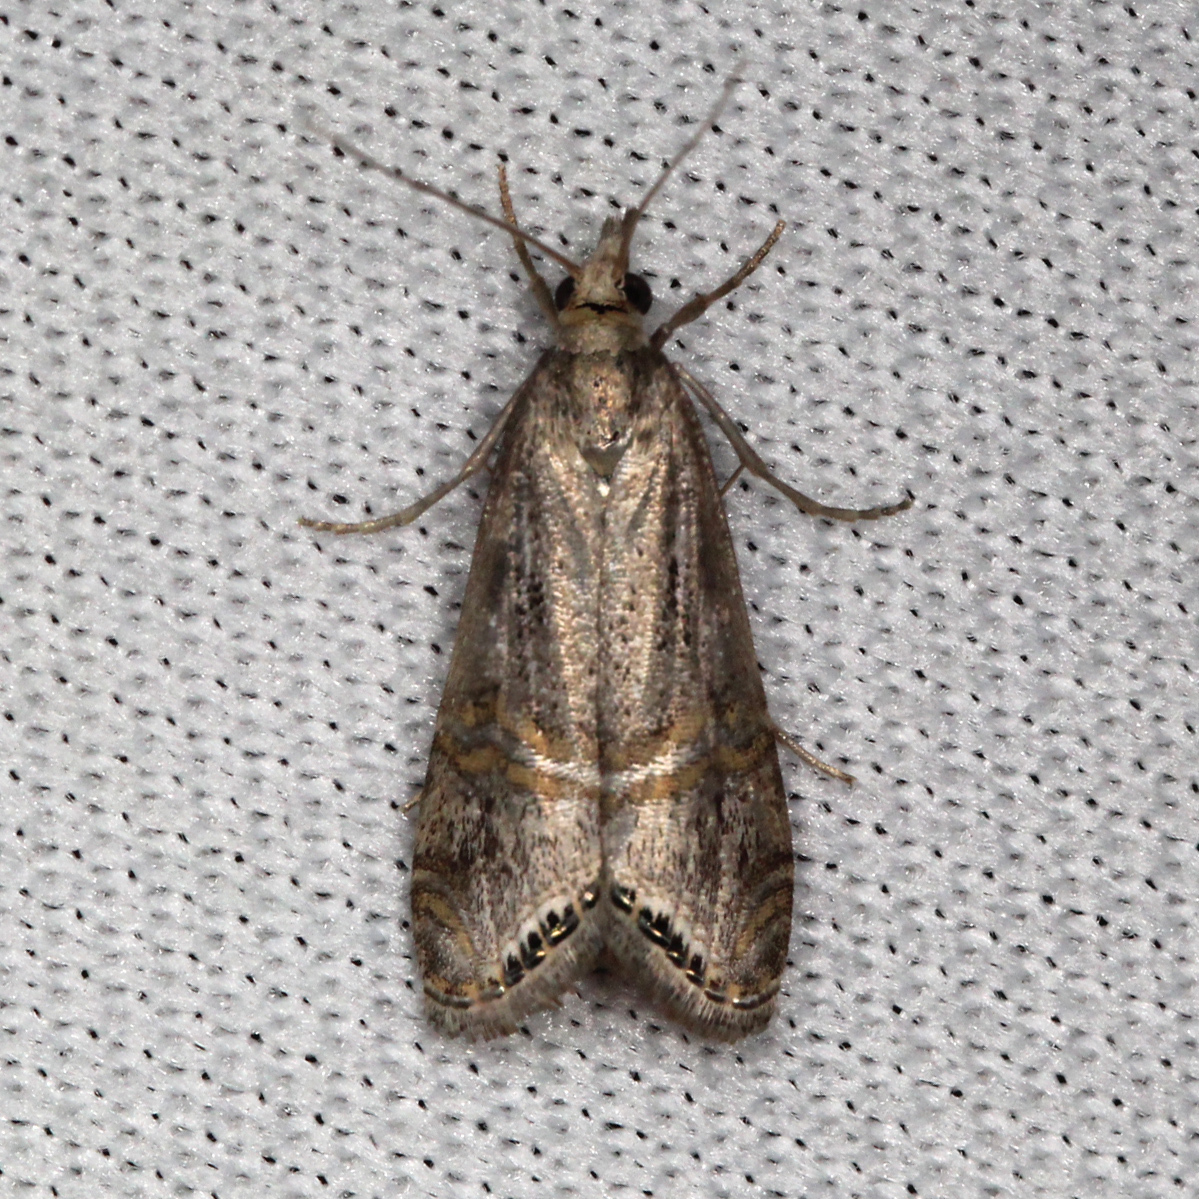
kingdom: Animalia
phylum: Arthropoda
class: Insecta
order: Lepidoptera
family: Crambidae
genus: Euchromius
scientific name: Euchromius ocellea
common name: Necklace veneer moth
